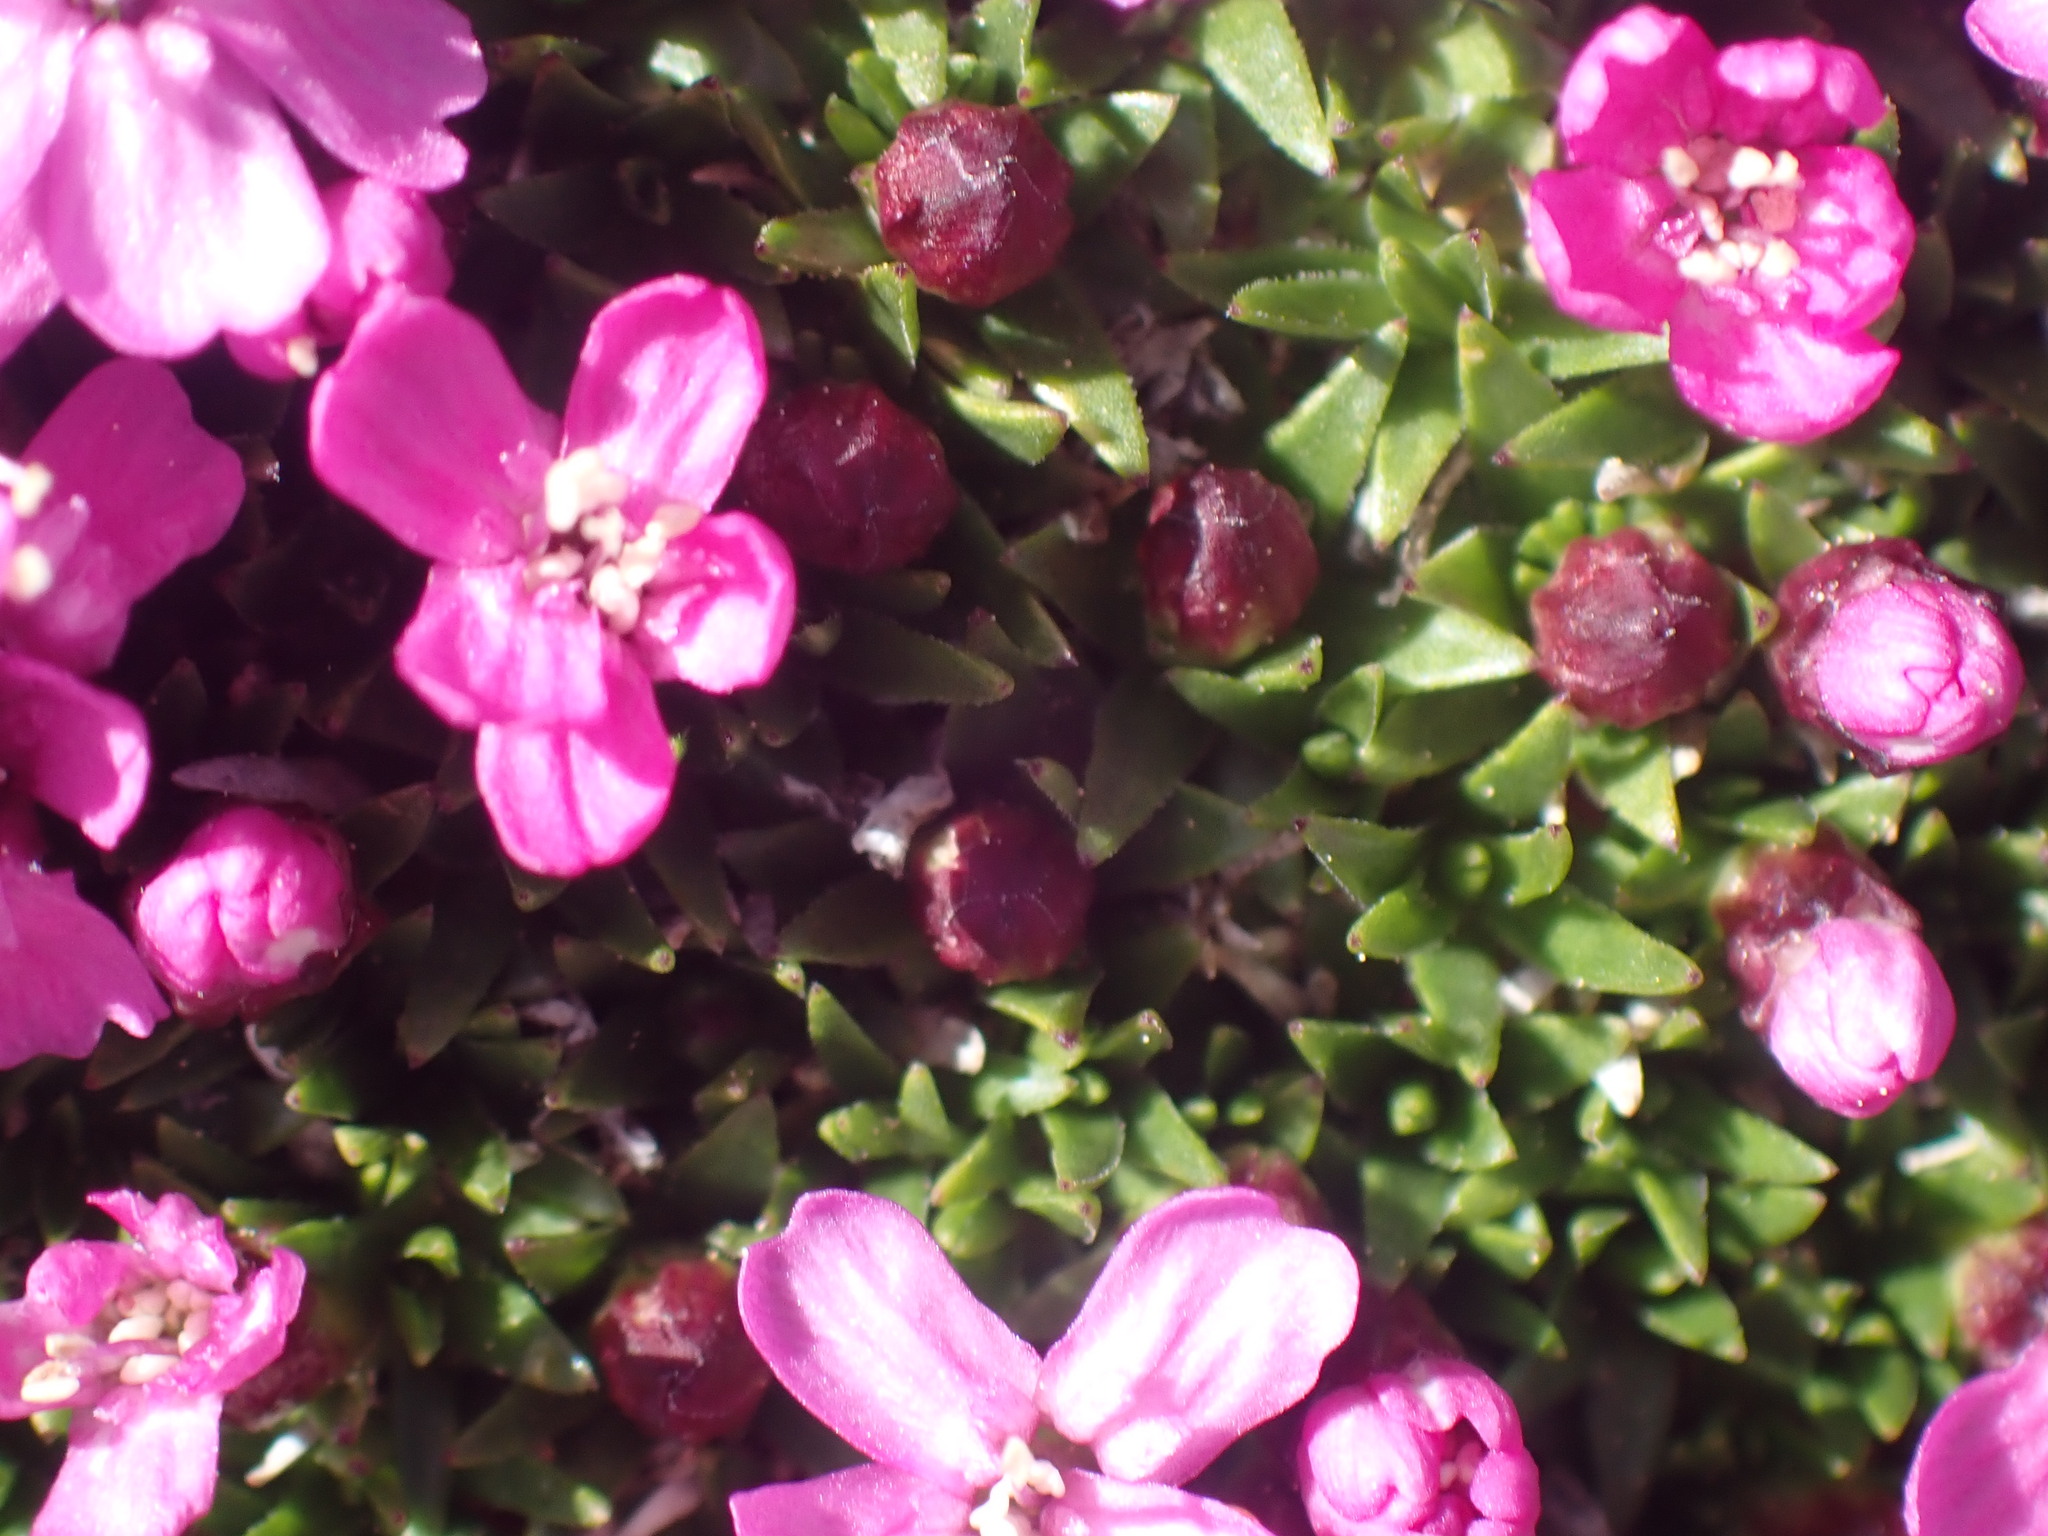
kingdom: Plantae
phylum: Tracheophyta
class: Magnoliopsida
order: Caryophyllales
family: Caryophyllaceae
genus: Silene
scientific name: Silene acaulis
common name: Moss campion
